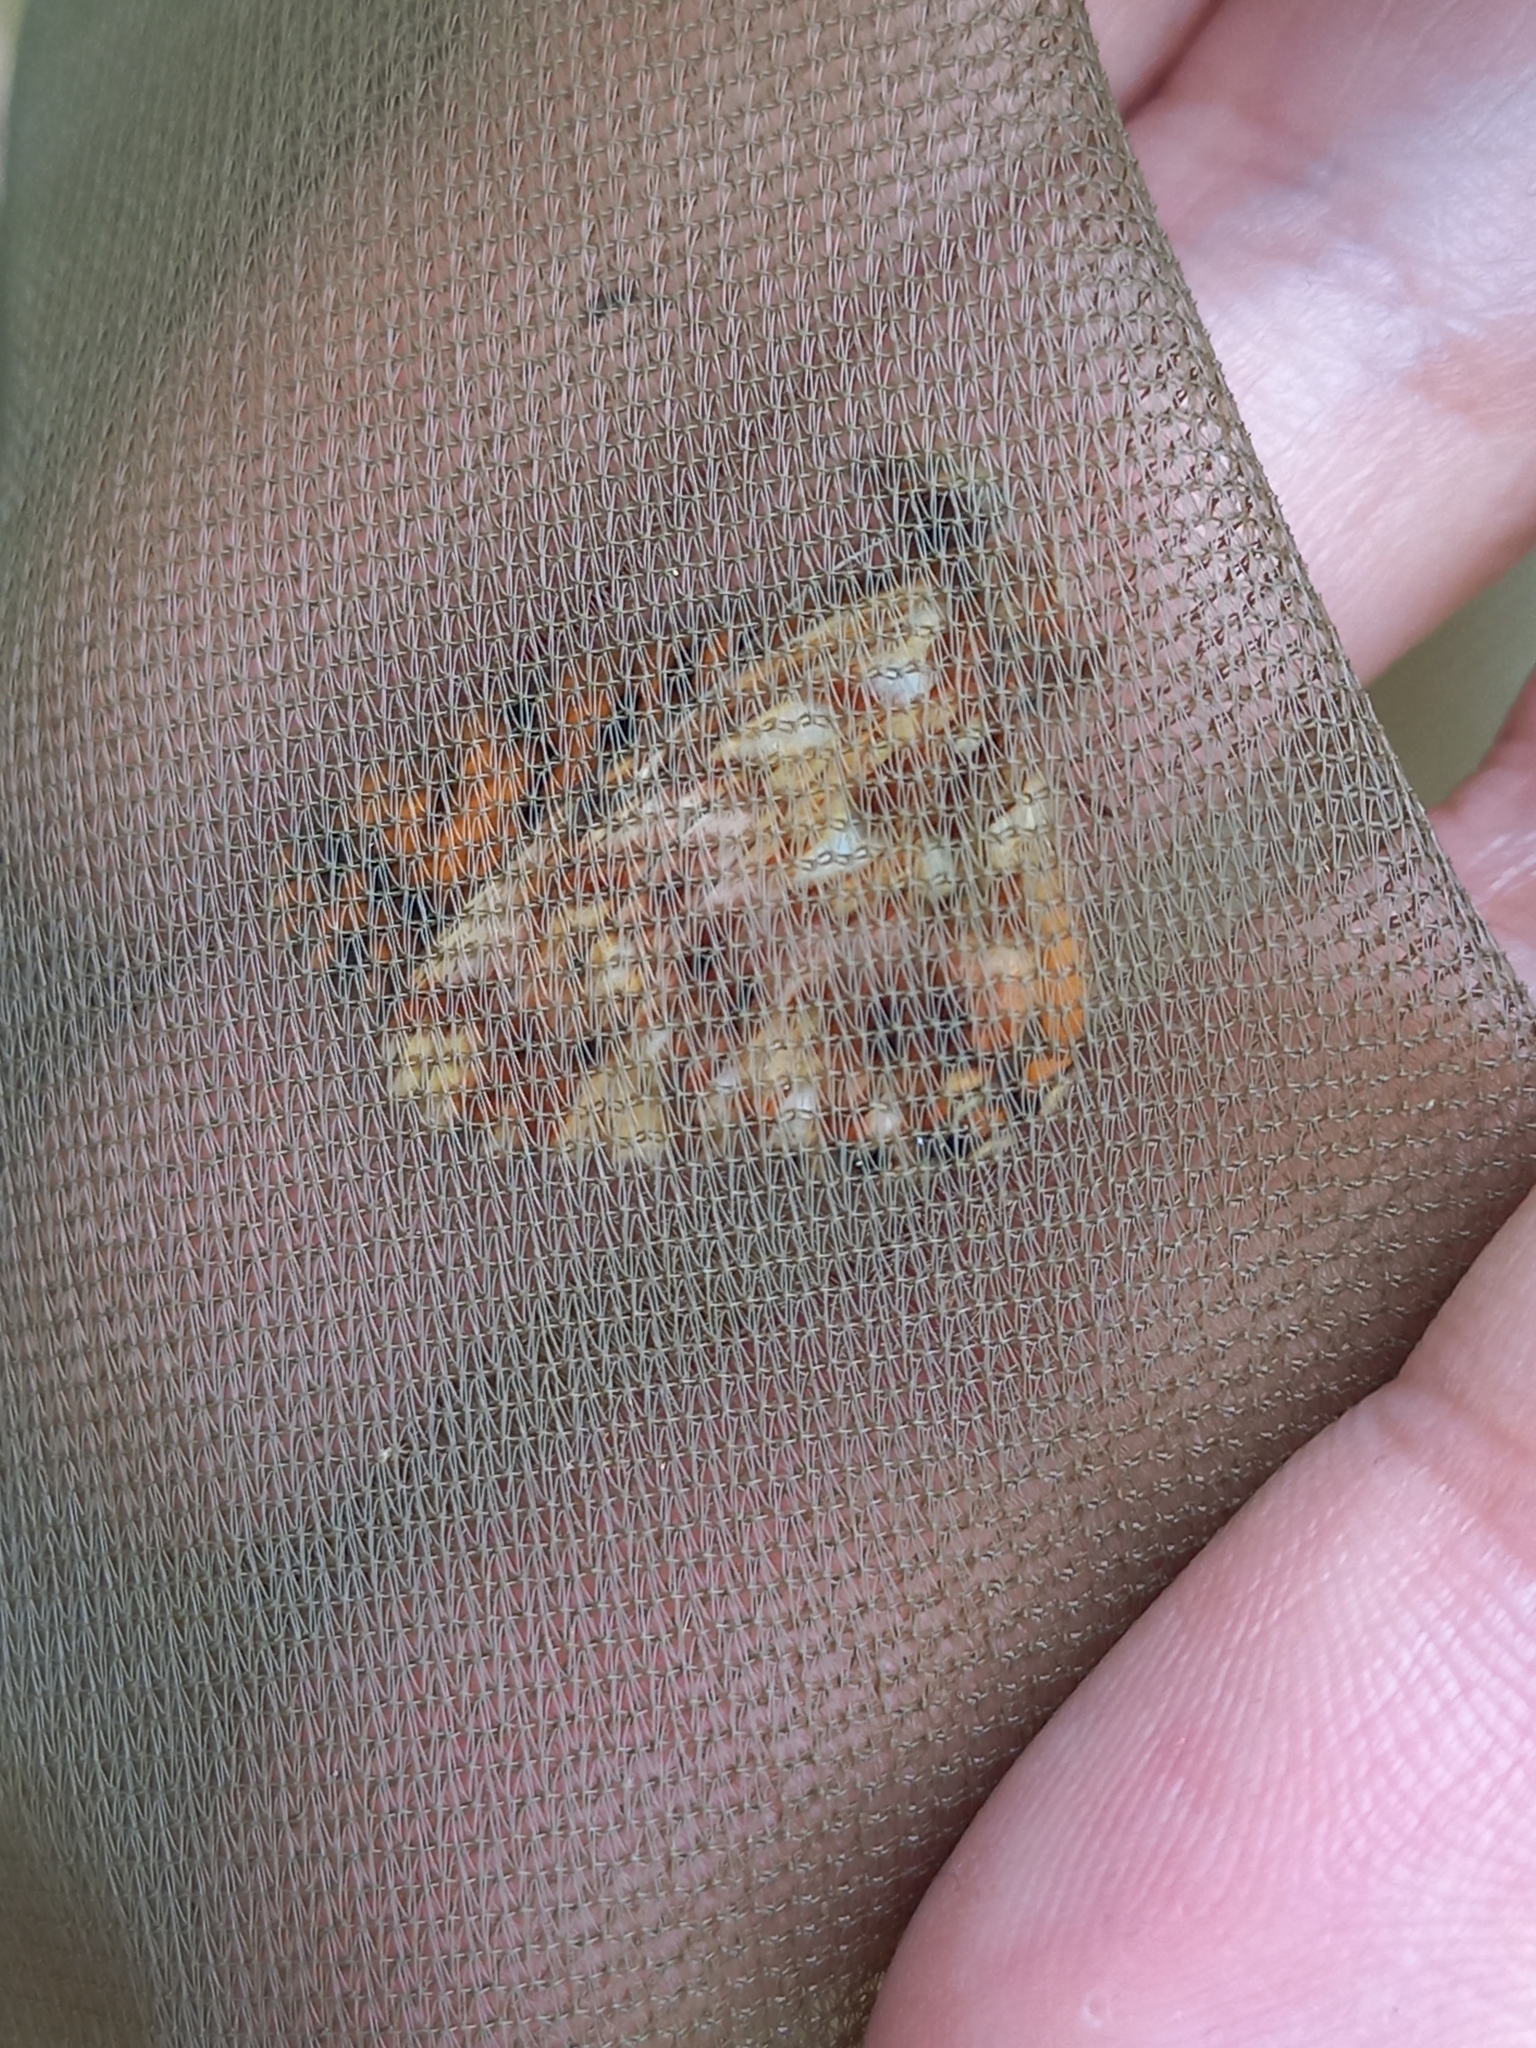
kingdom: Animalia
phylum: Arthropoda
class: Insecta
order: Lepidoptera
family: Nymphalidae
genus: Boloria
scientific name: Boloria dia
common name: Weaver's fritillary
